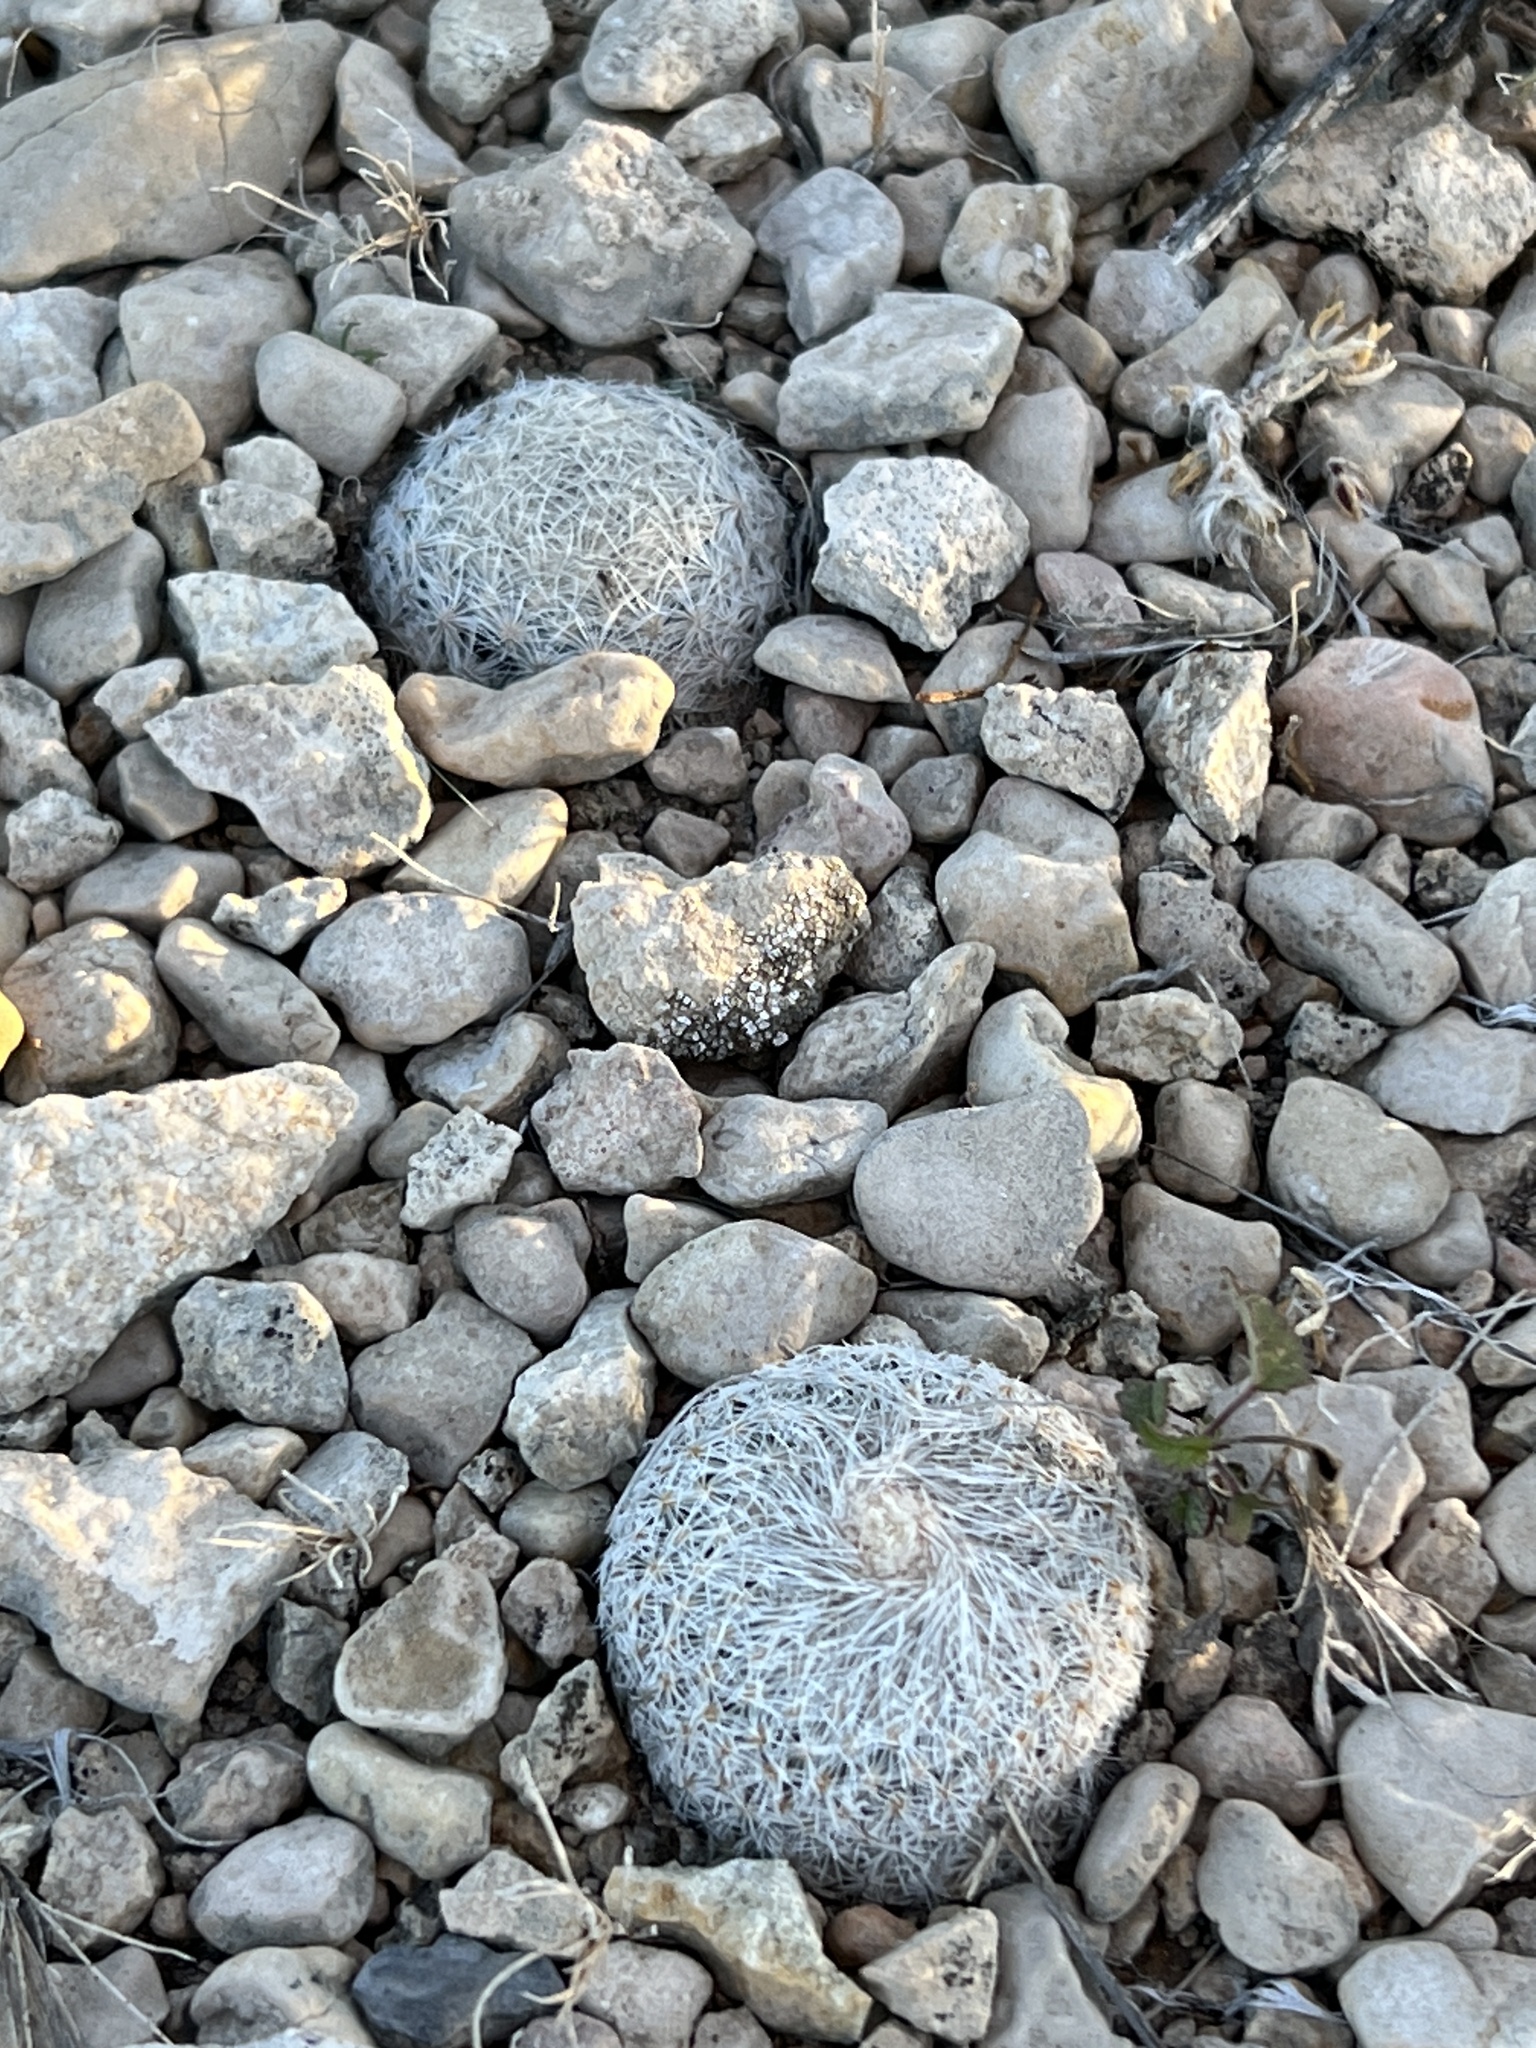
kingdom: Plantae
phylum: Tracheophyta
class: Magnoliopsida
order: Caryophyllales
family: Cactaceae
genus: Epithelantha
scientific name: Epithelantha micromeris
